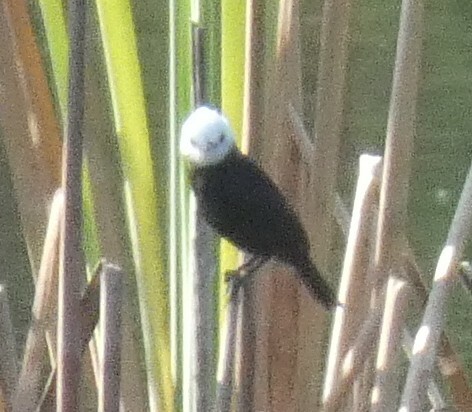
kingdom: Animalia
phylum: Chordata
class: Aves
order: Passeriformes
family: Tyrannidae
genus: Arundinicola
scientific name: Arundinicola leucocephala
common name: White-headed marsh tyrant
